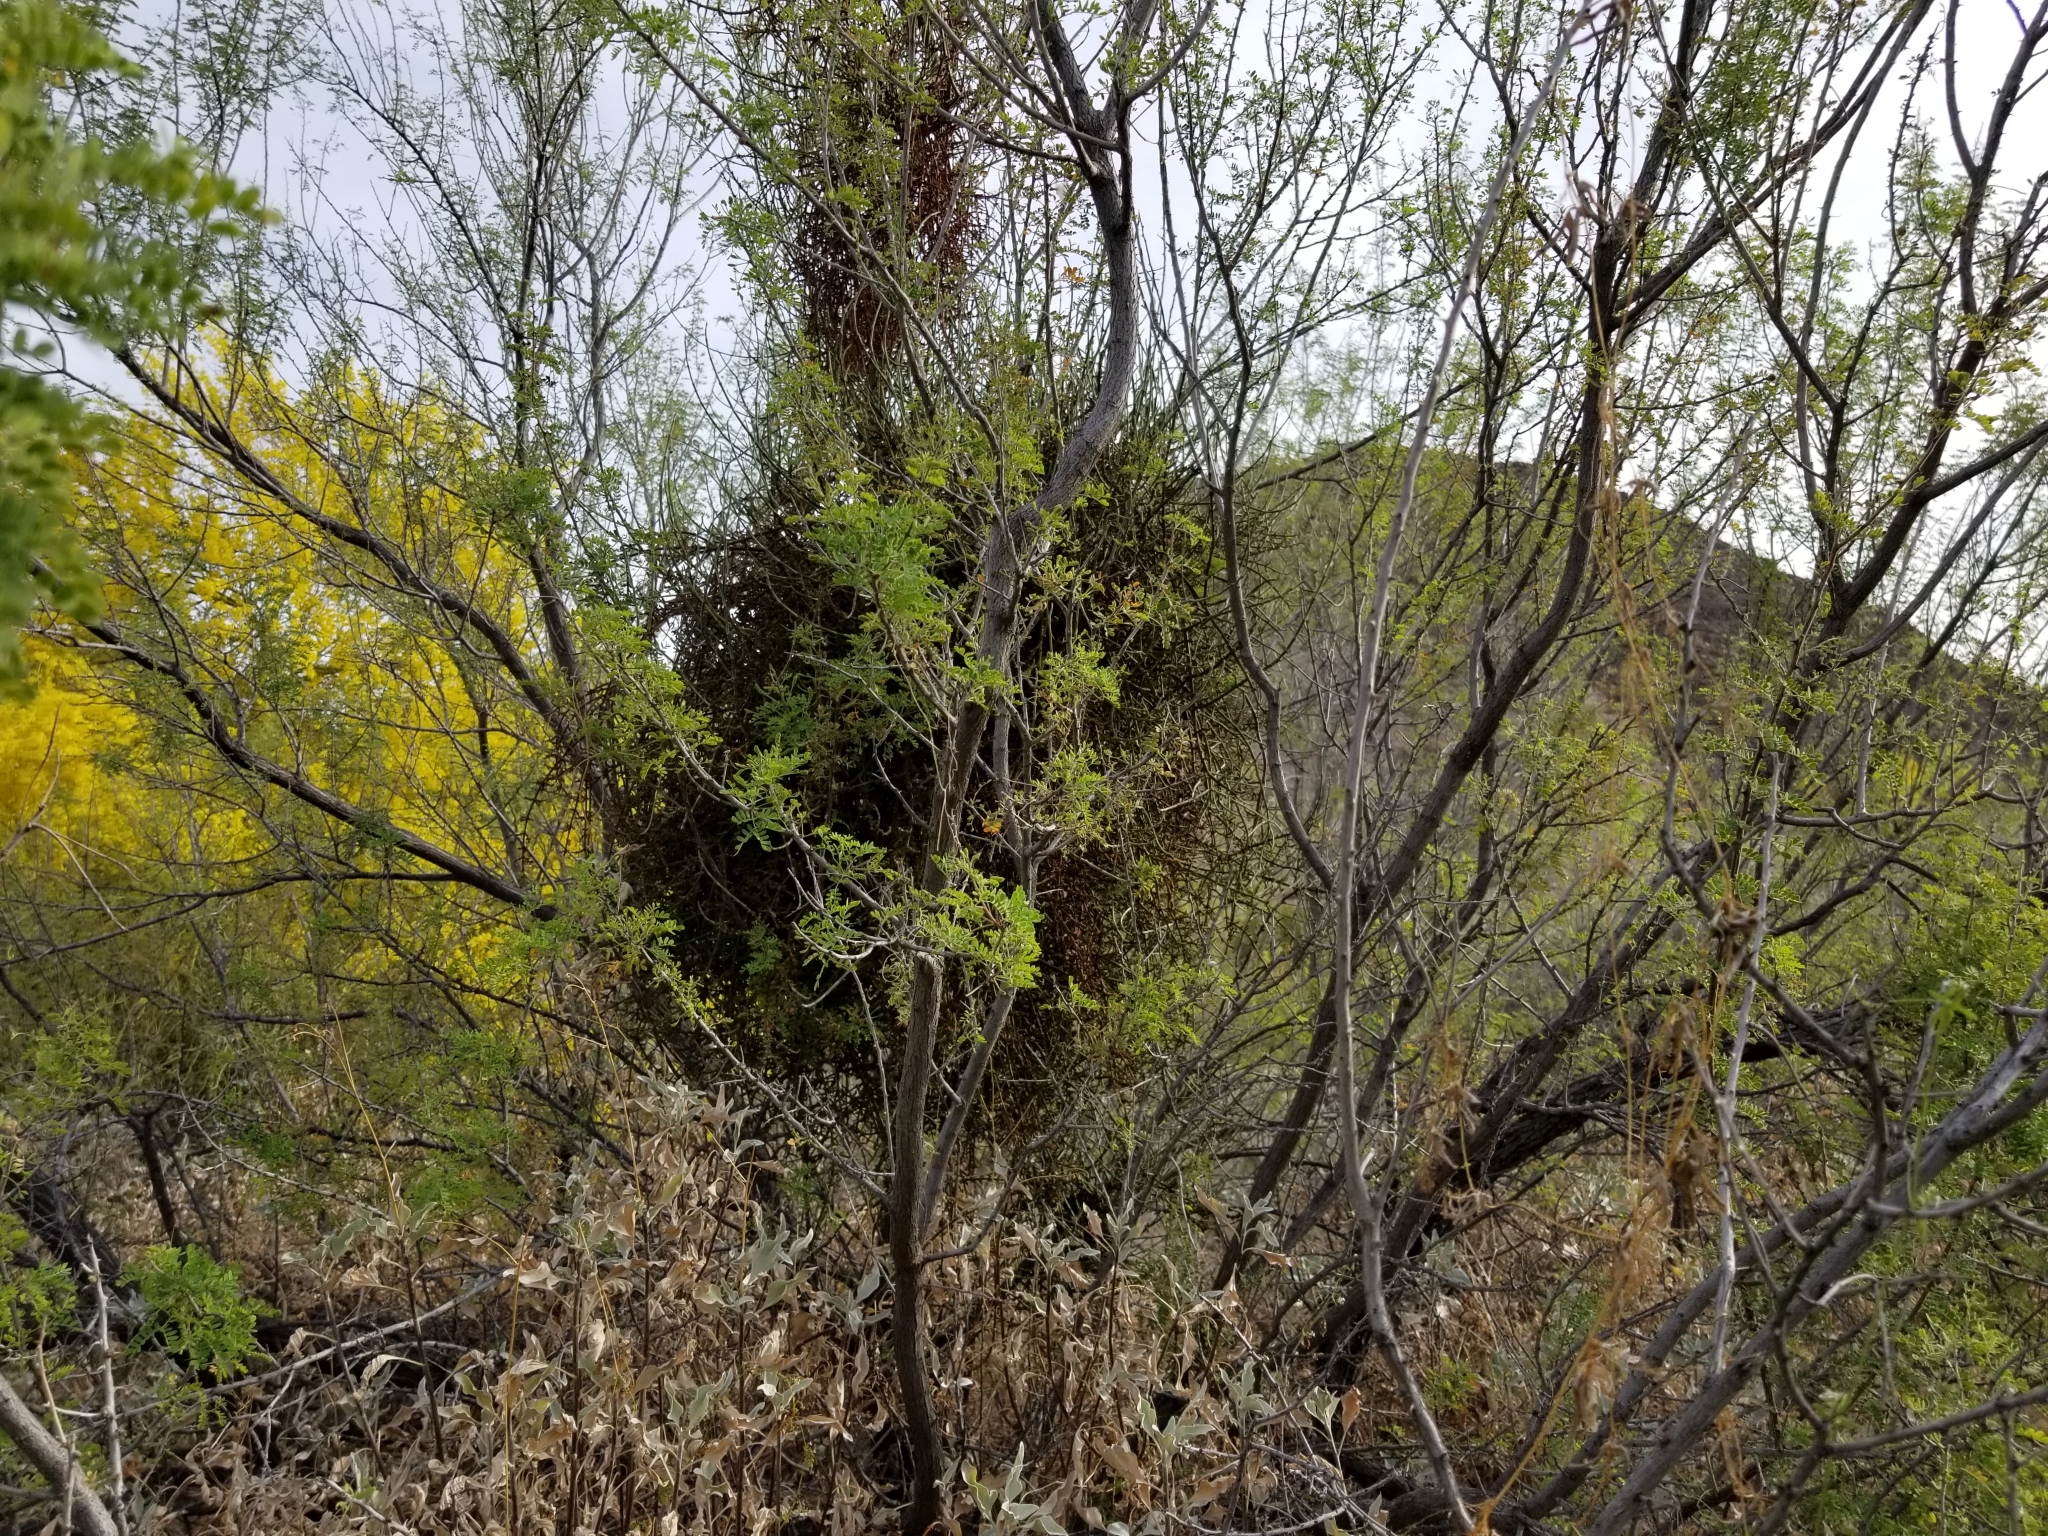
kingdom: Plantae
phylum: Tracheophyta
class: Magnoliopsida
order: Santalales
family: Viscaceae
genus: Phoradendron
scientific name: Phoradendron californicum
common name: Acacia mistletoe
